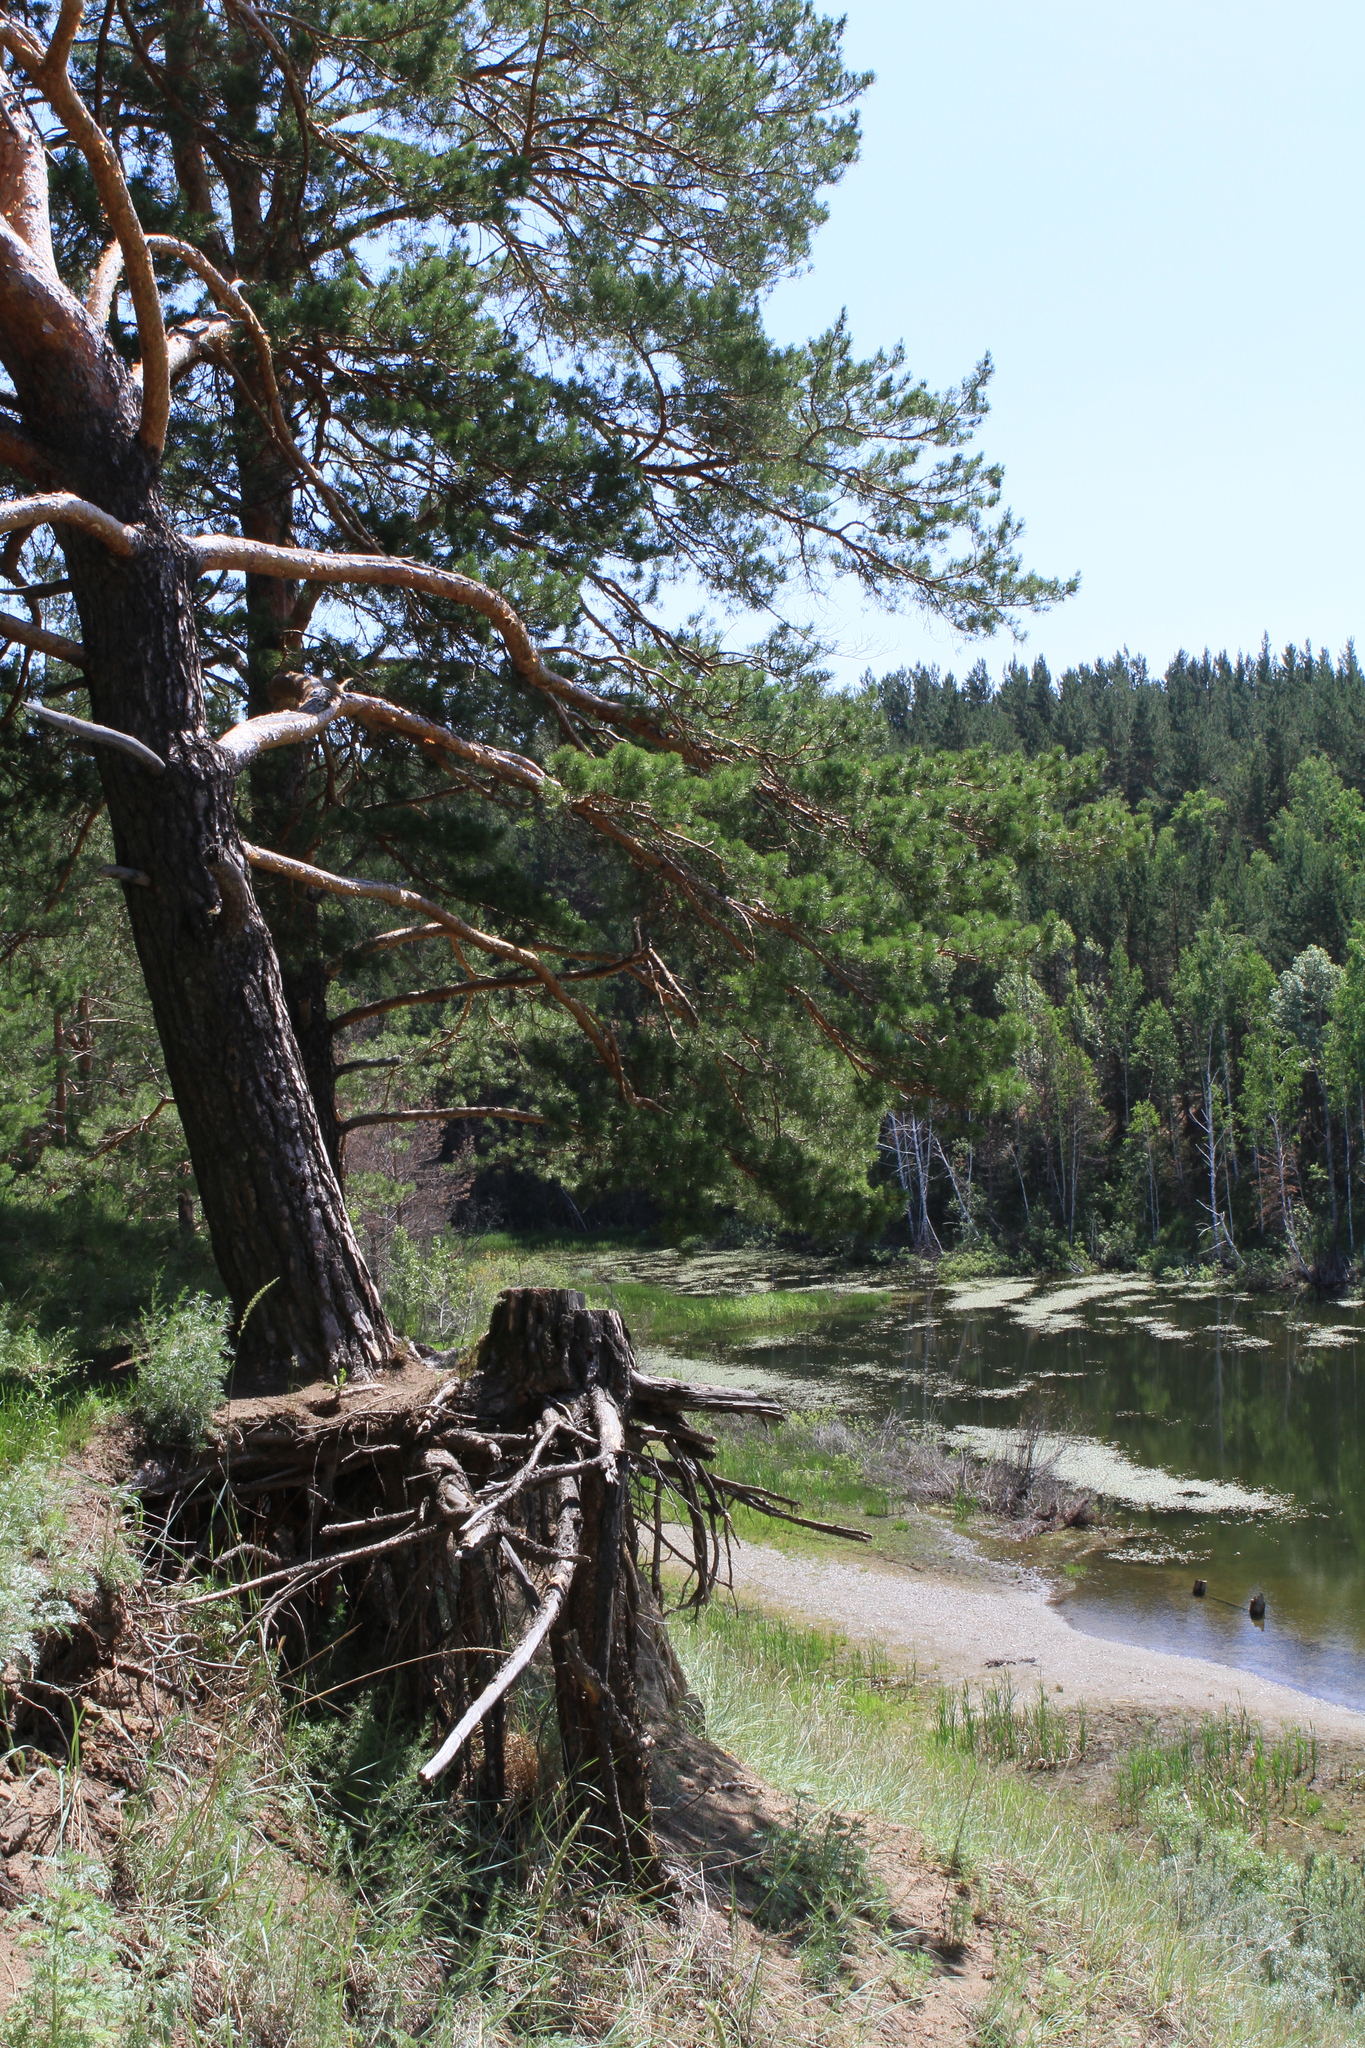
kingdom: Plantae
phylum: Tracheophyta
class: Pinopsida
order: Pinales
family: Pinaceae
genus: Pinus
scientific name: Pinus sylvestris
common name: Scots pine
